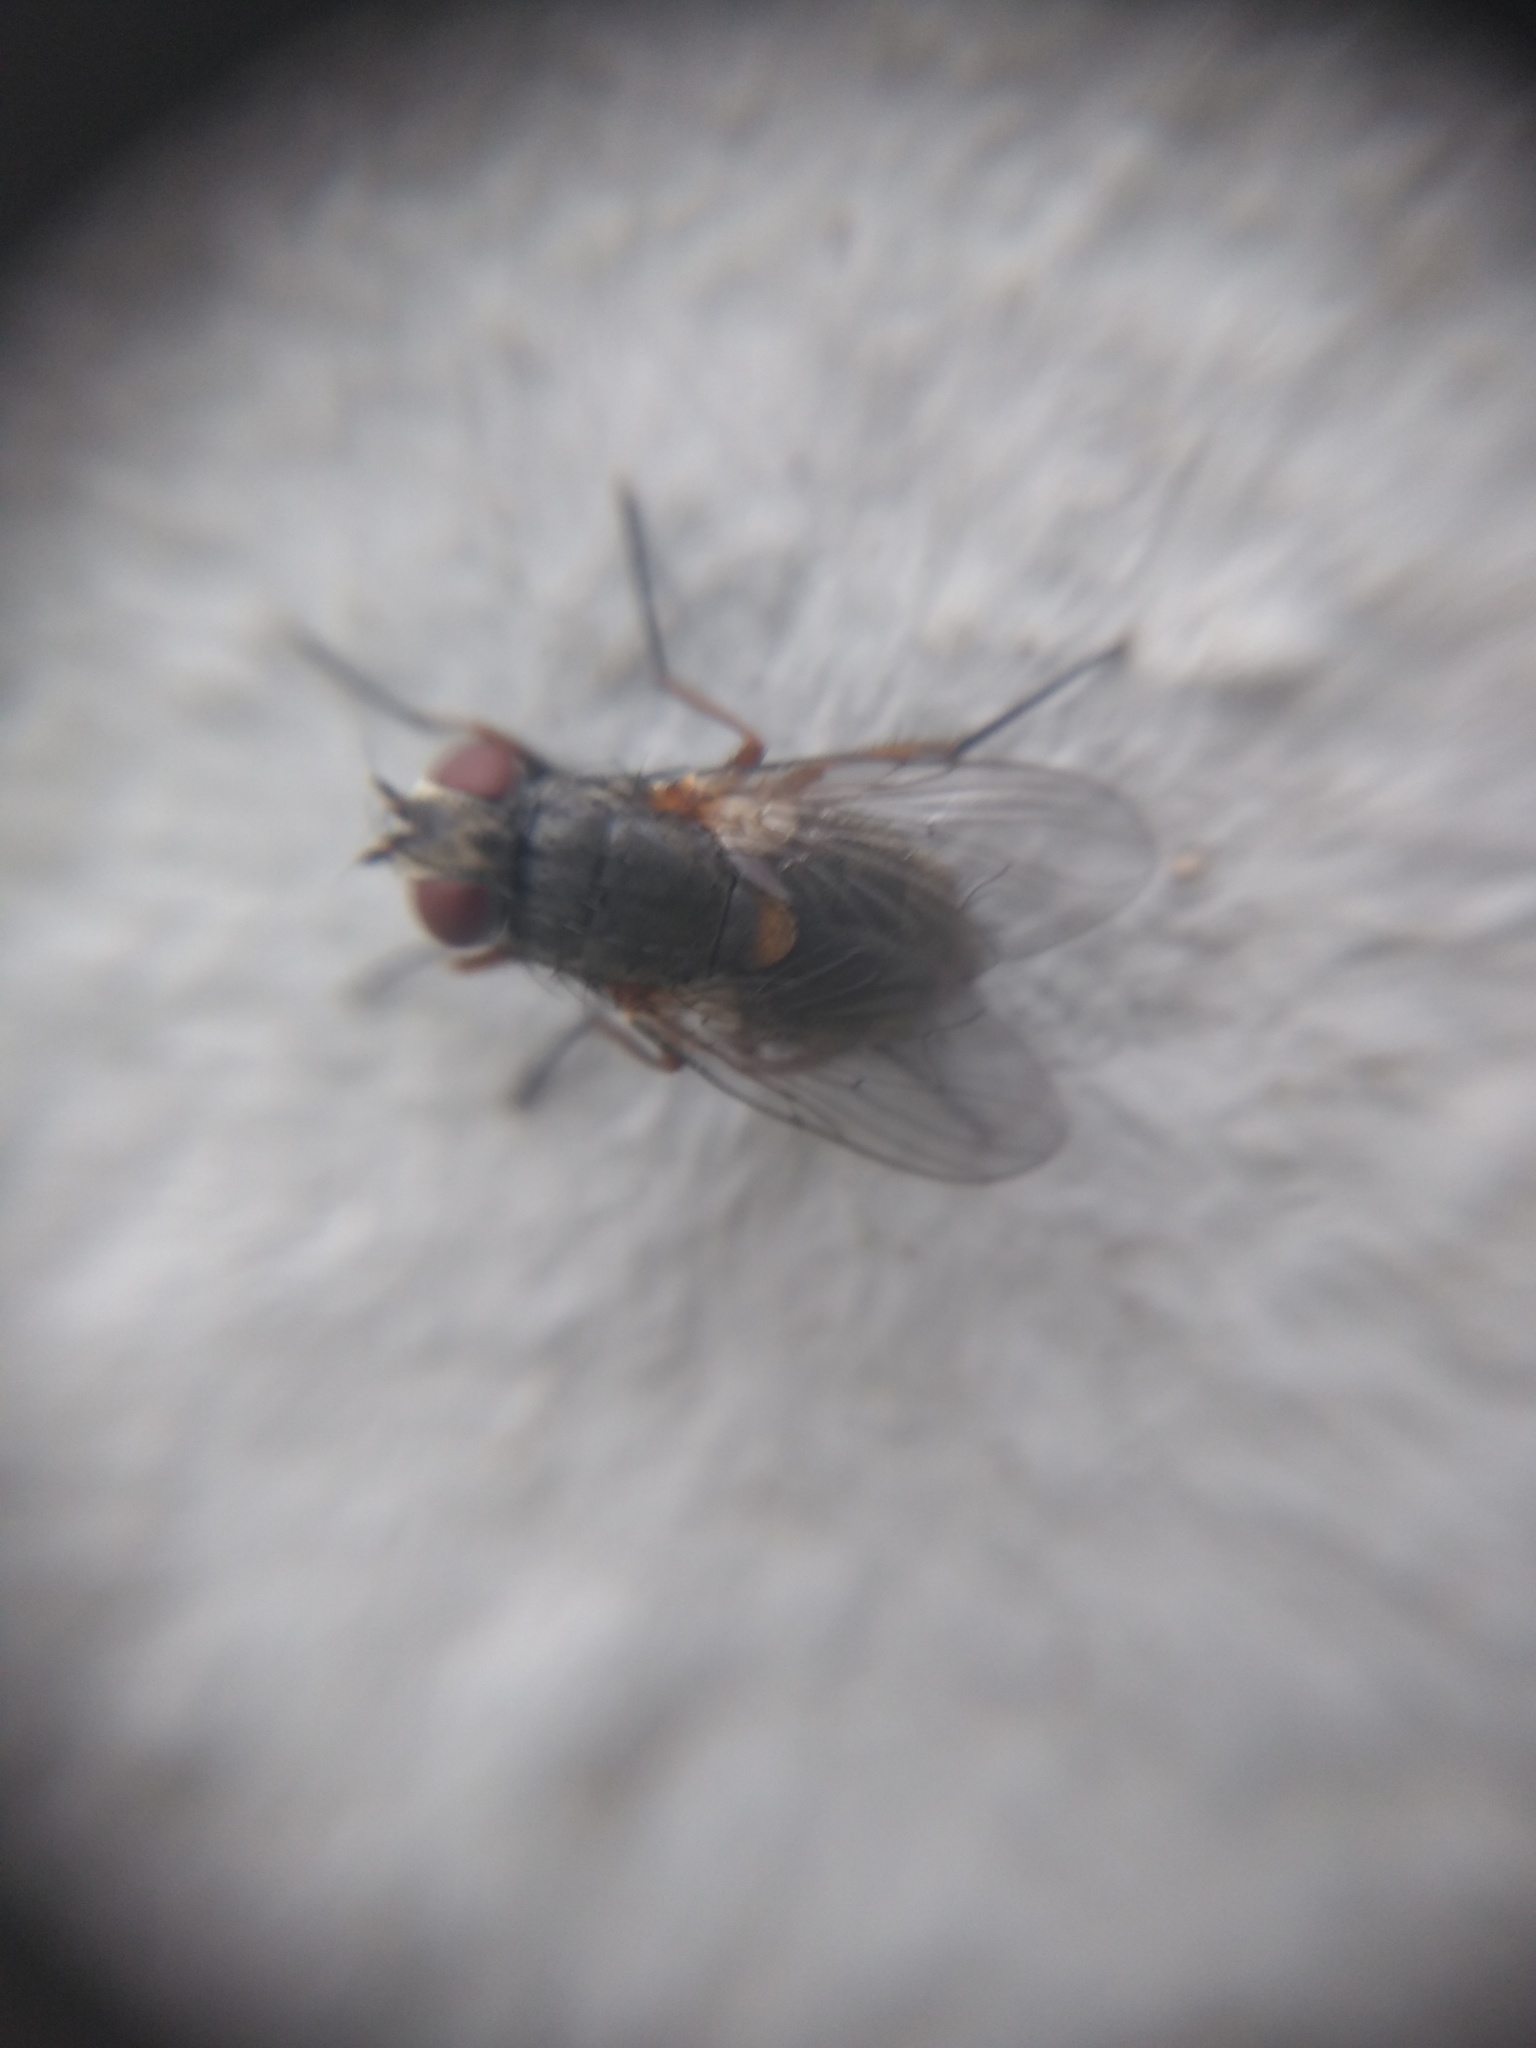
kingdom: Animalia
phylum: Arthropoda
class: Insecta
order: Diptera
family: Muscidae
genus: Muscina
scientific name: Muscina stabulans
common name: False stable fly
